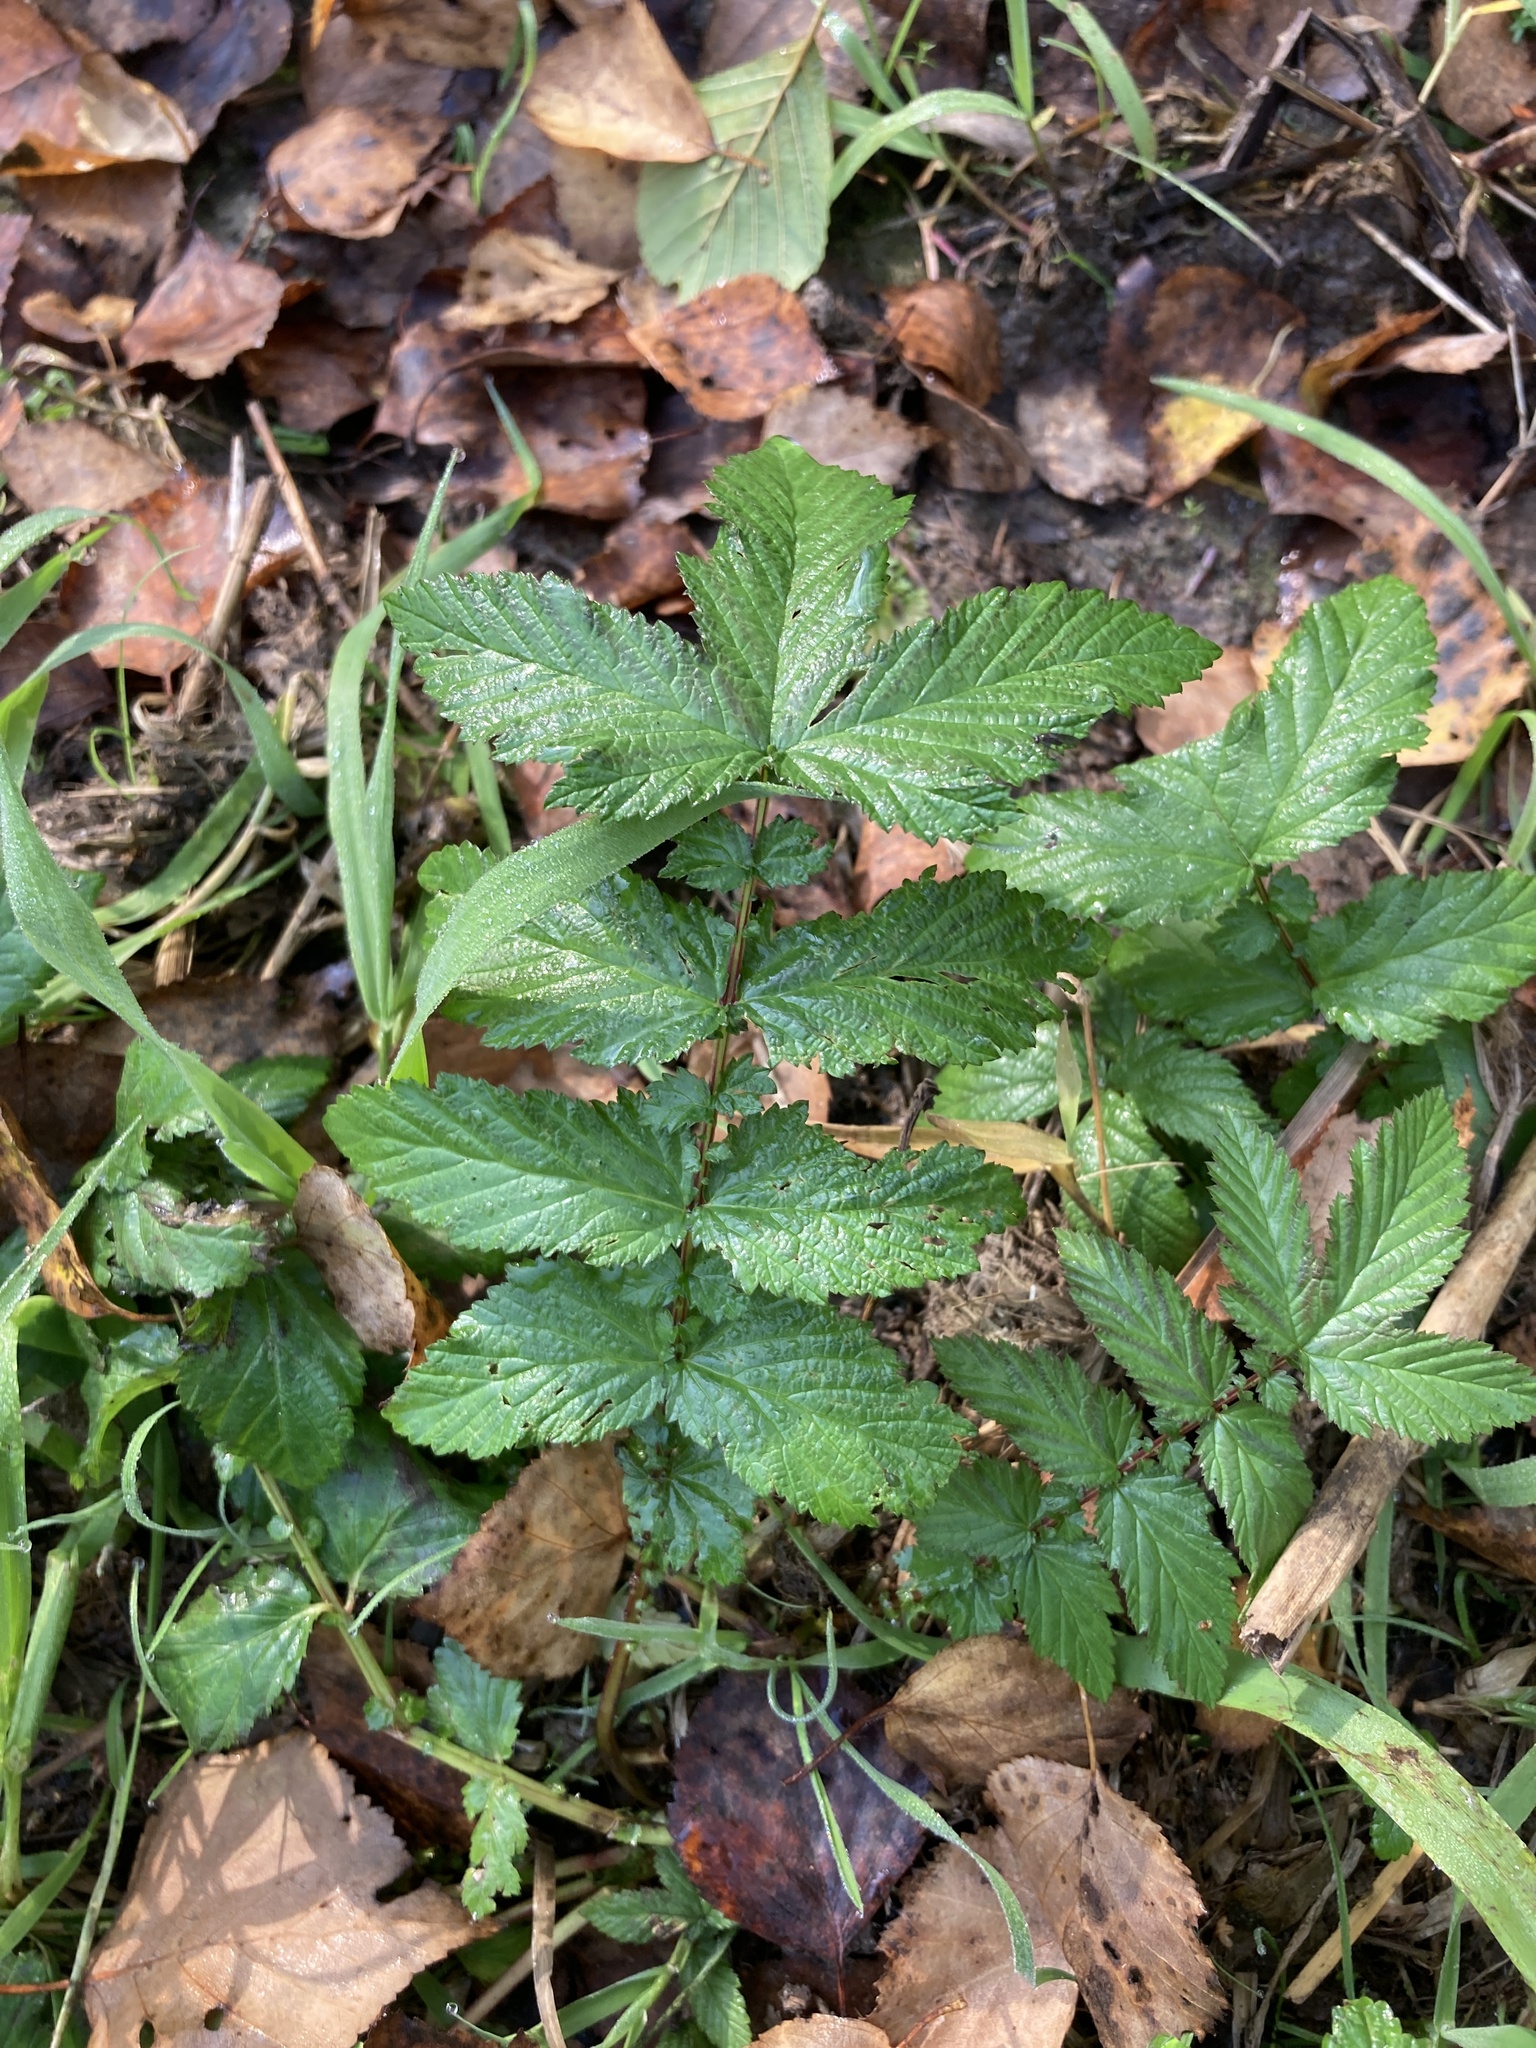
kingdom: Plantae
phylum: Tracheophyta
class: Magnoliopsida
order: Rosales
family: Rosaceae
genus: Filipendula
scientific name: Filipendula ulmaria
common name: Meadowsweet
